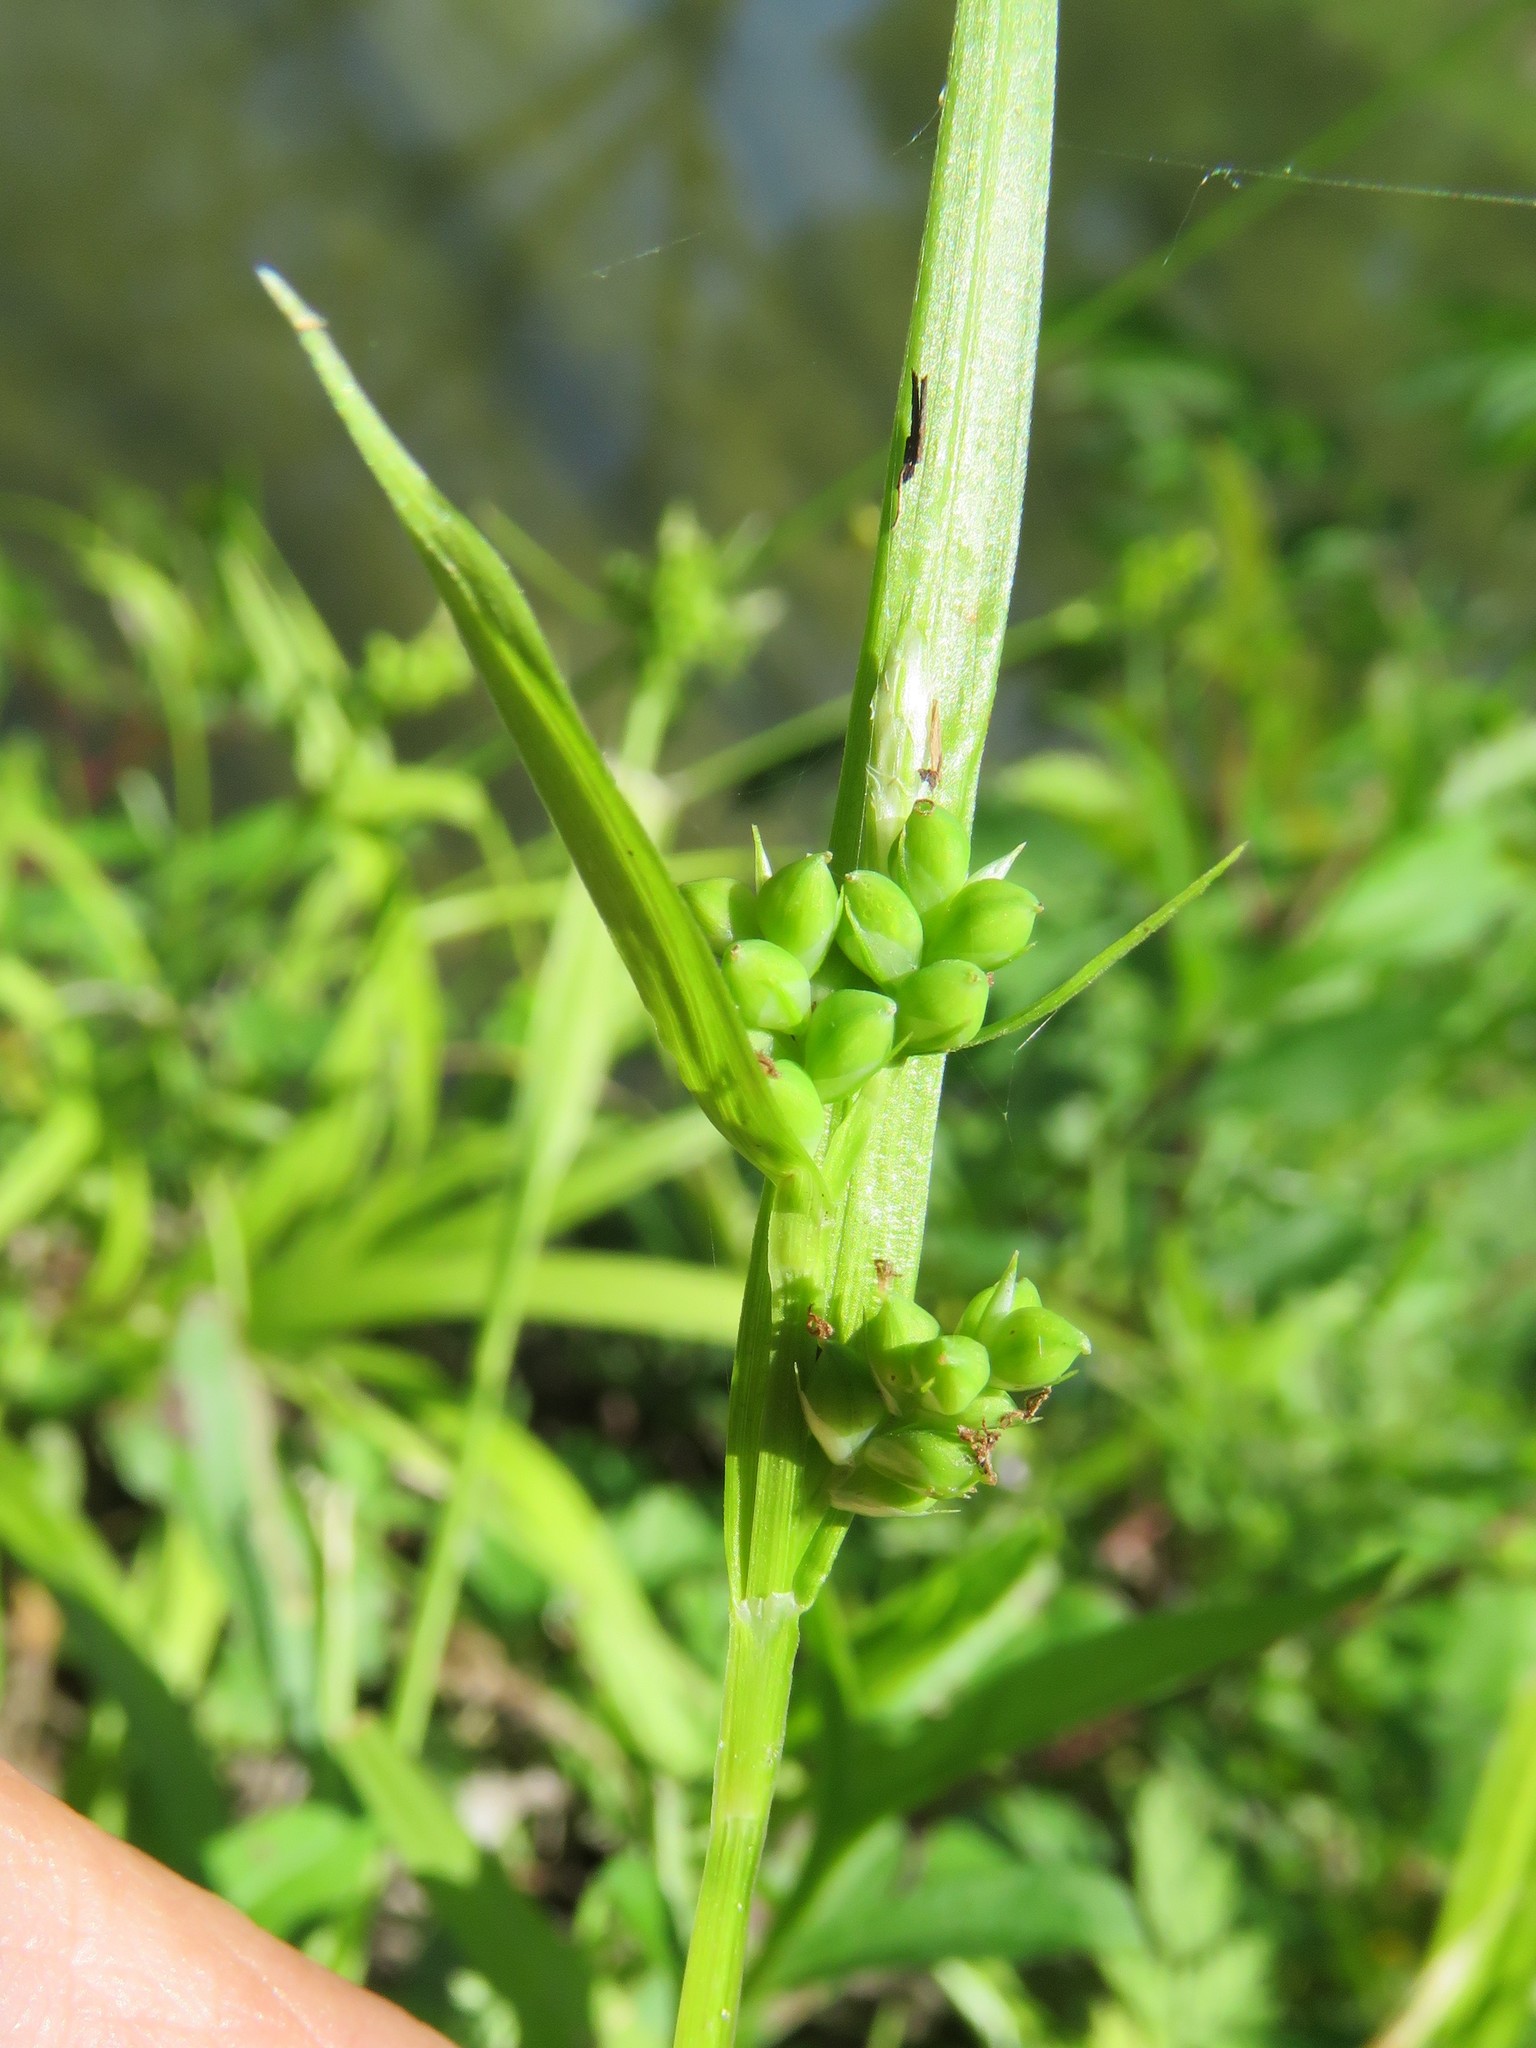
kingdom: Plantae
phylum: Tracheophyta
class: Liliopsida
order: Poales
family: Cyperaceae
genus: Carex
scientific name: Carex blanda
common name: Bland sedge
